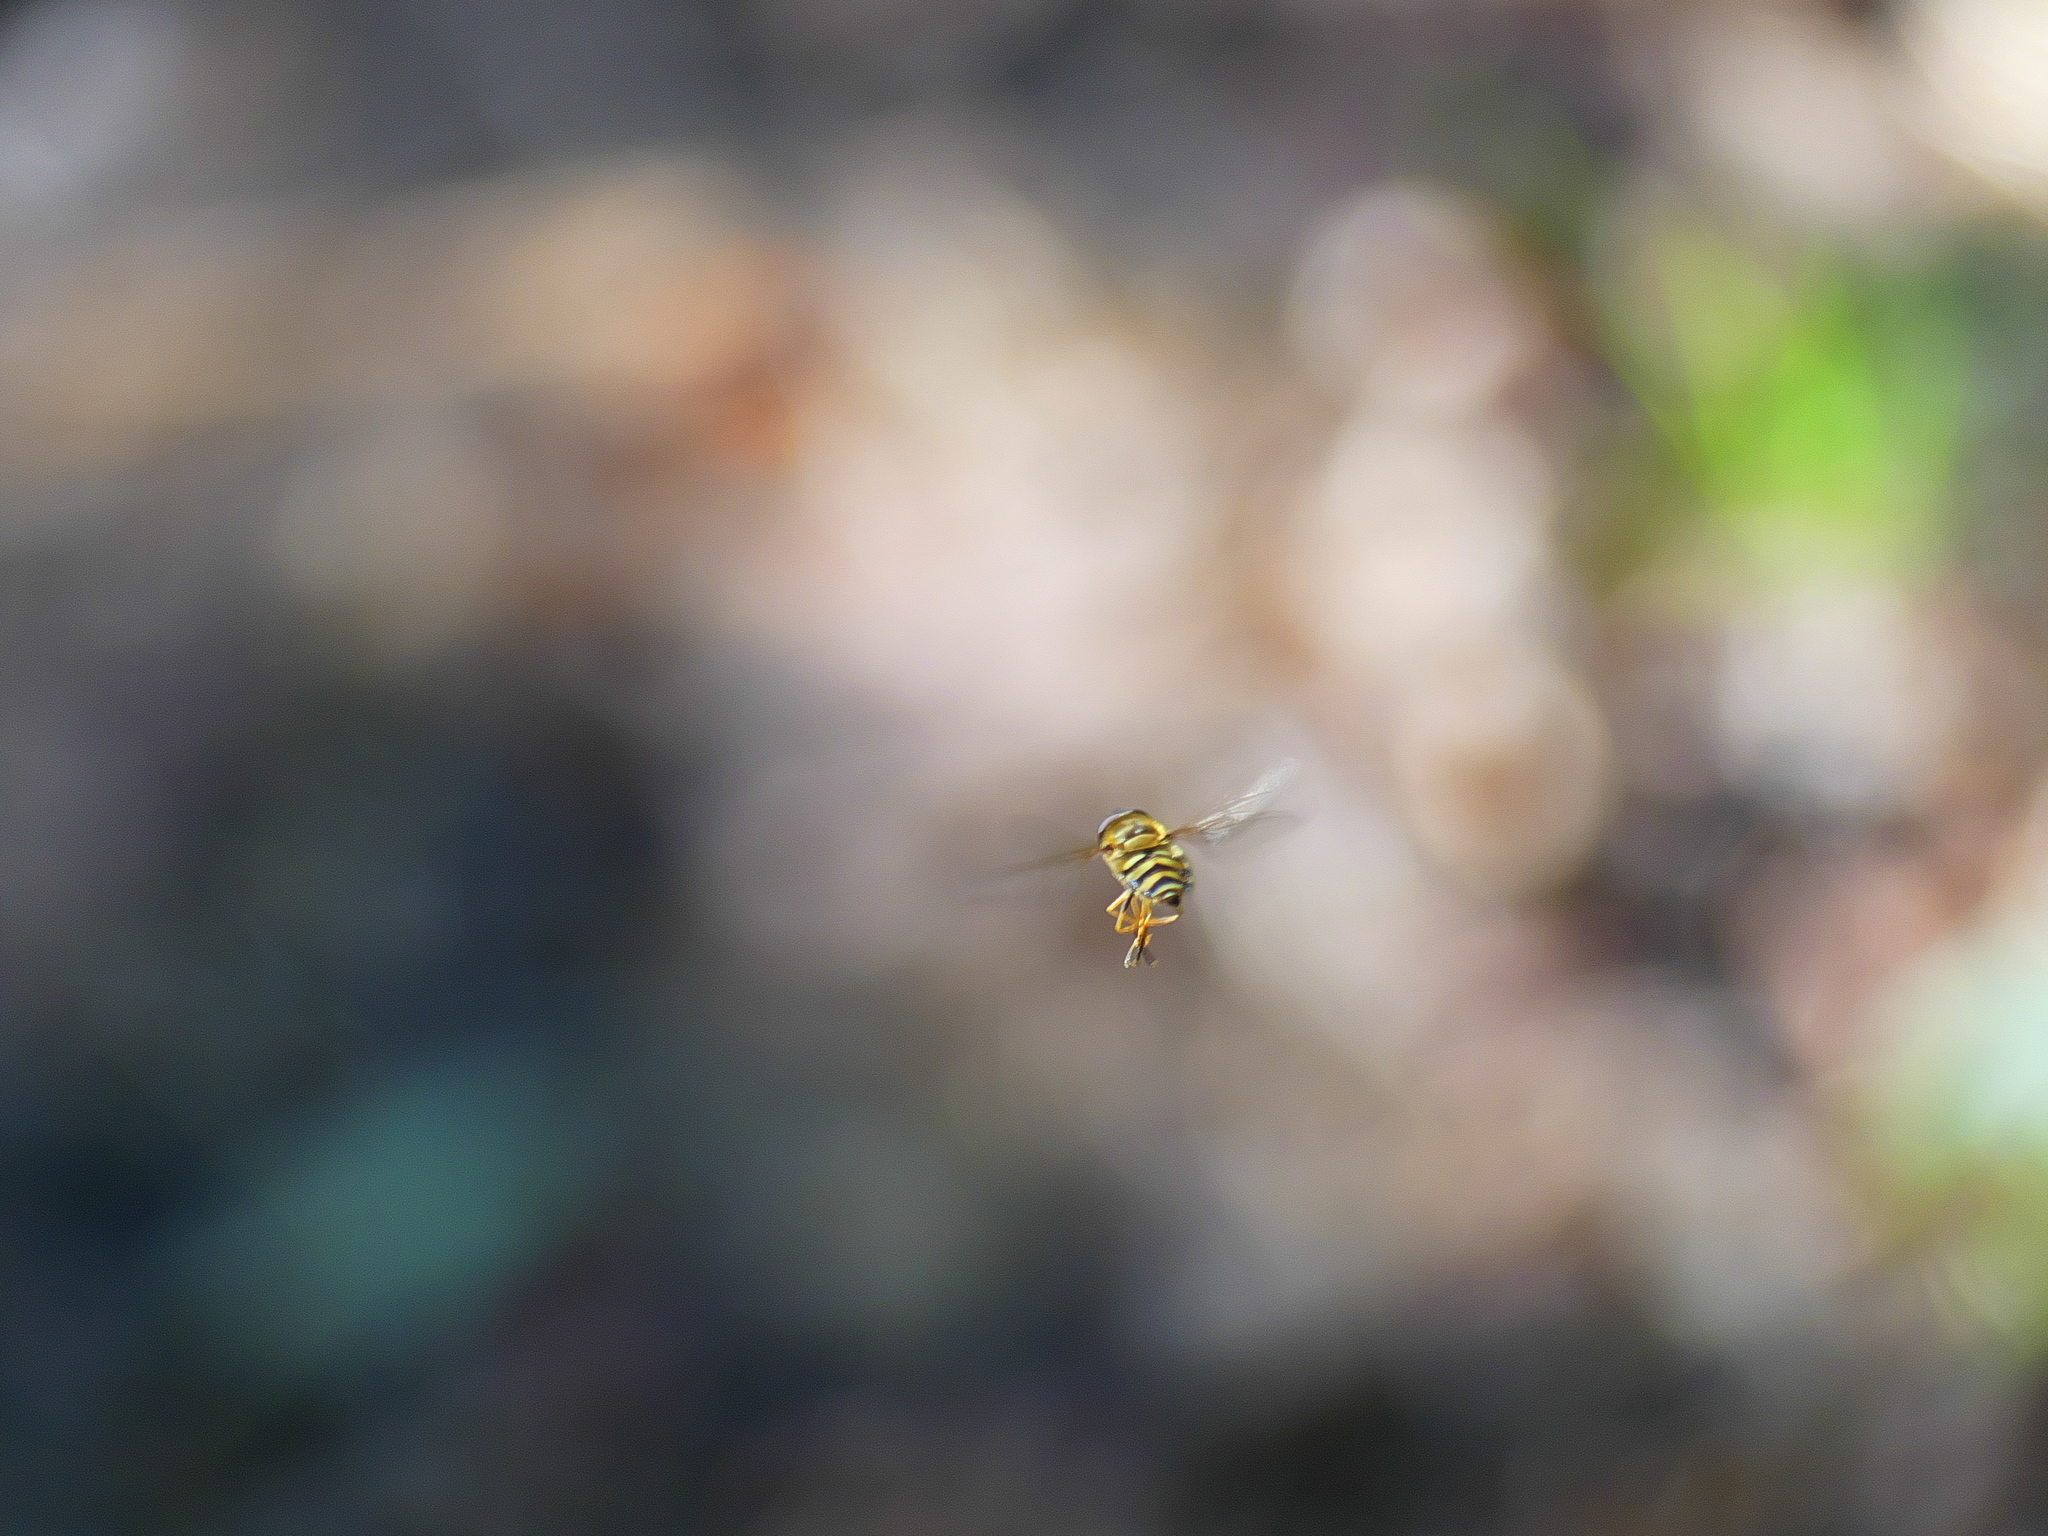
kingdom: Animalia
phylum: Arthropoda
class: Insecta
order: Diptera
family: Syrphidae
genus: Syrphus
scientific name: Syrphus
